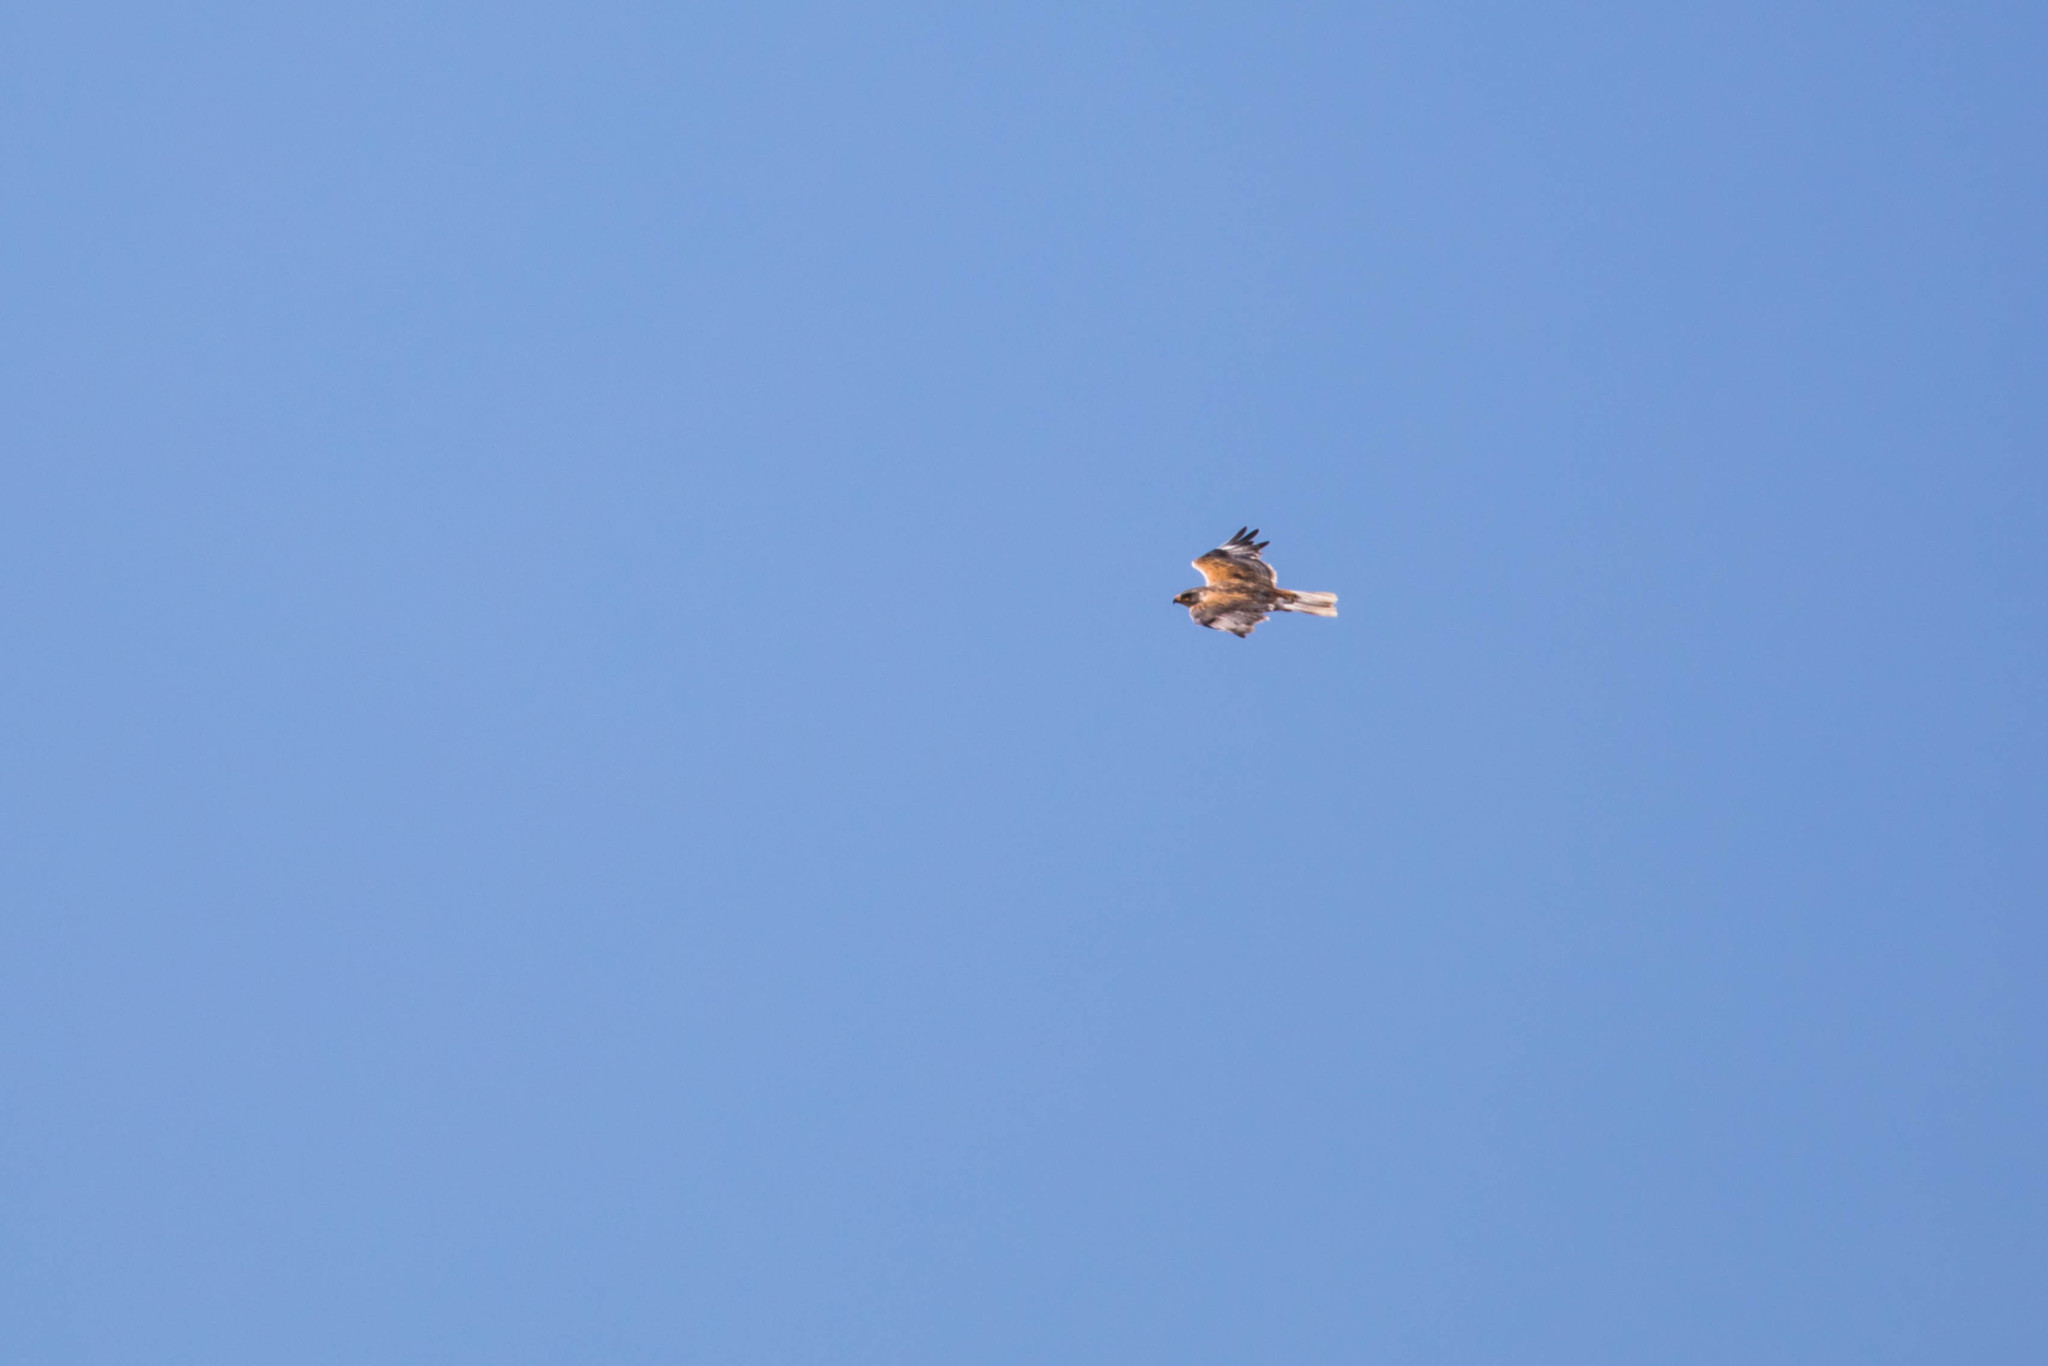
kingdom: Animalia
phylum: Chordata
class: Aves
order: Accipitriformes
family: Accipitridae
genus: Buteo
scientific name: Buteo regalis
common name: Ferruginous hawk
